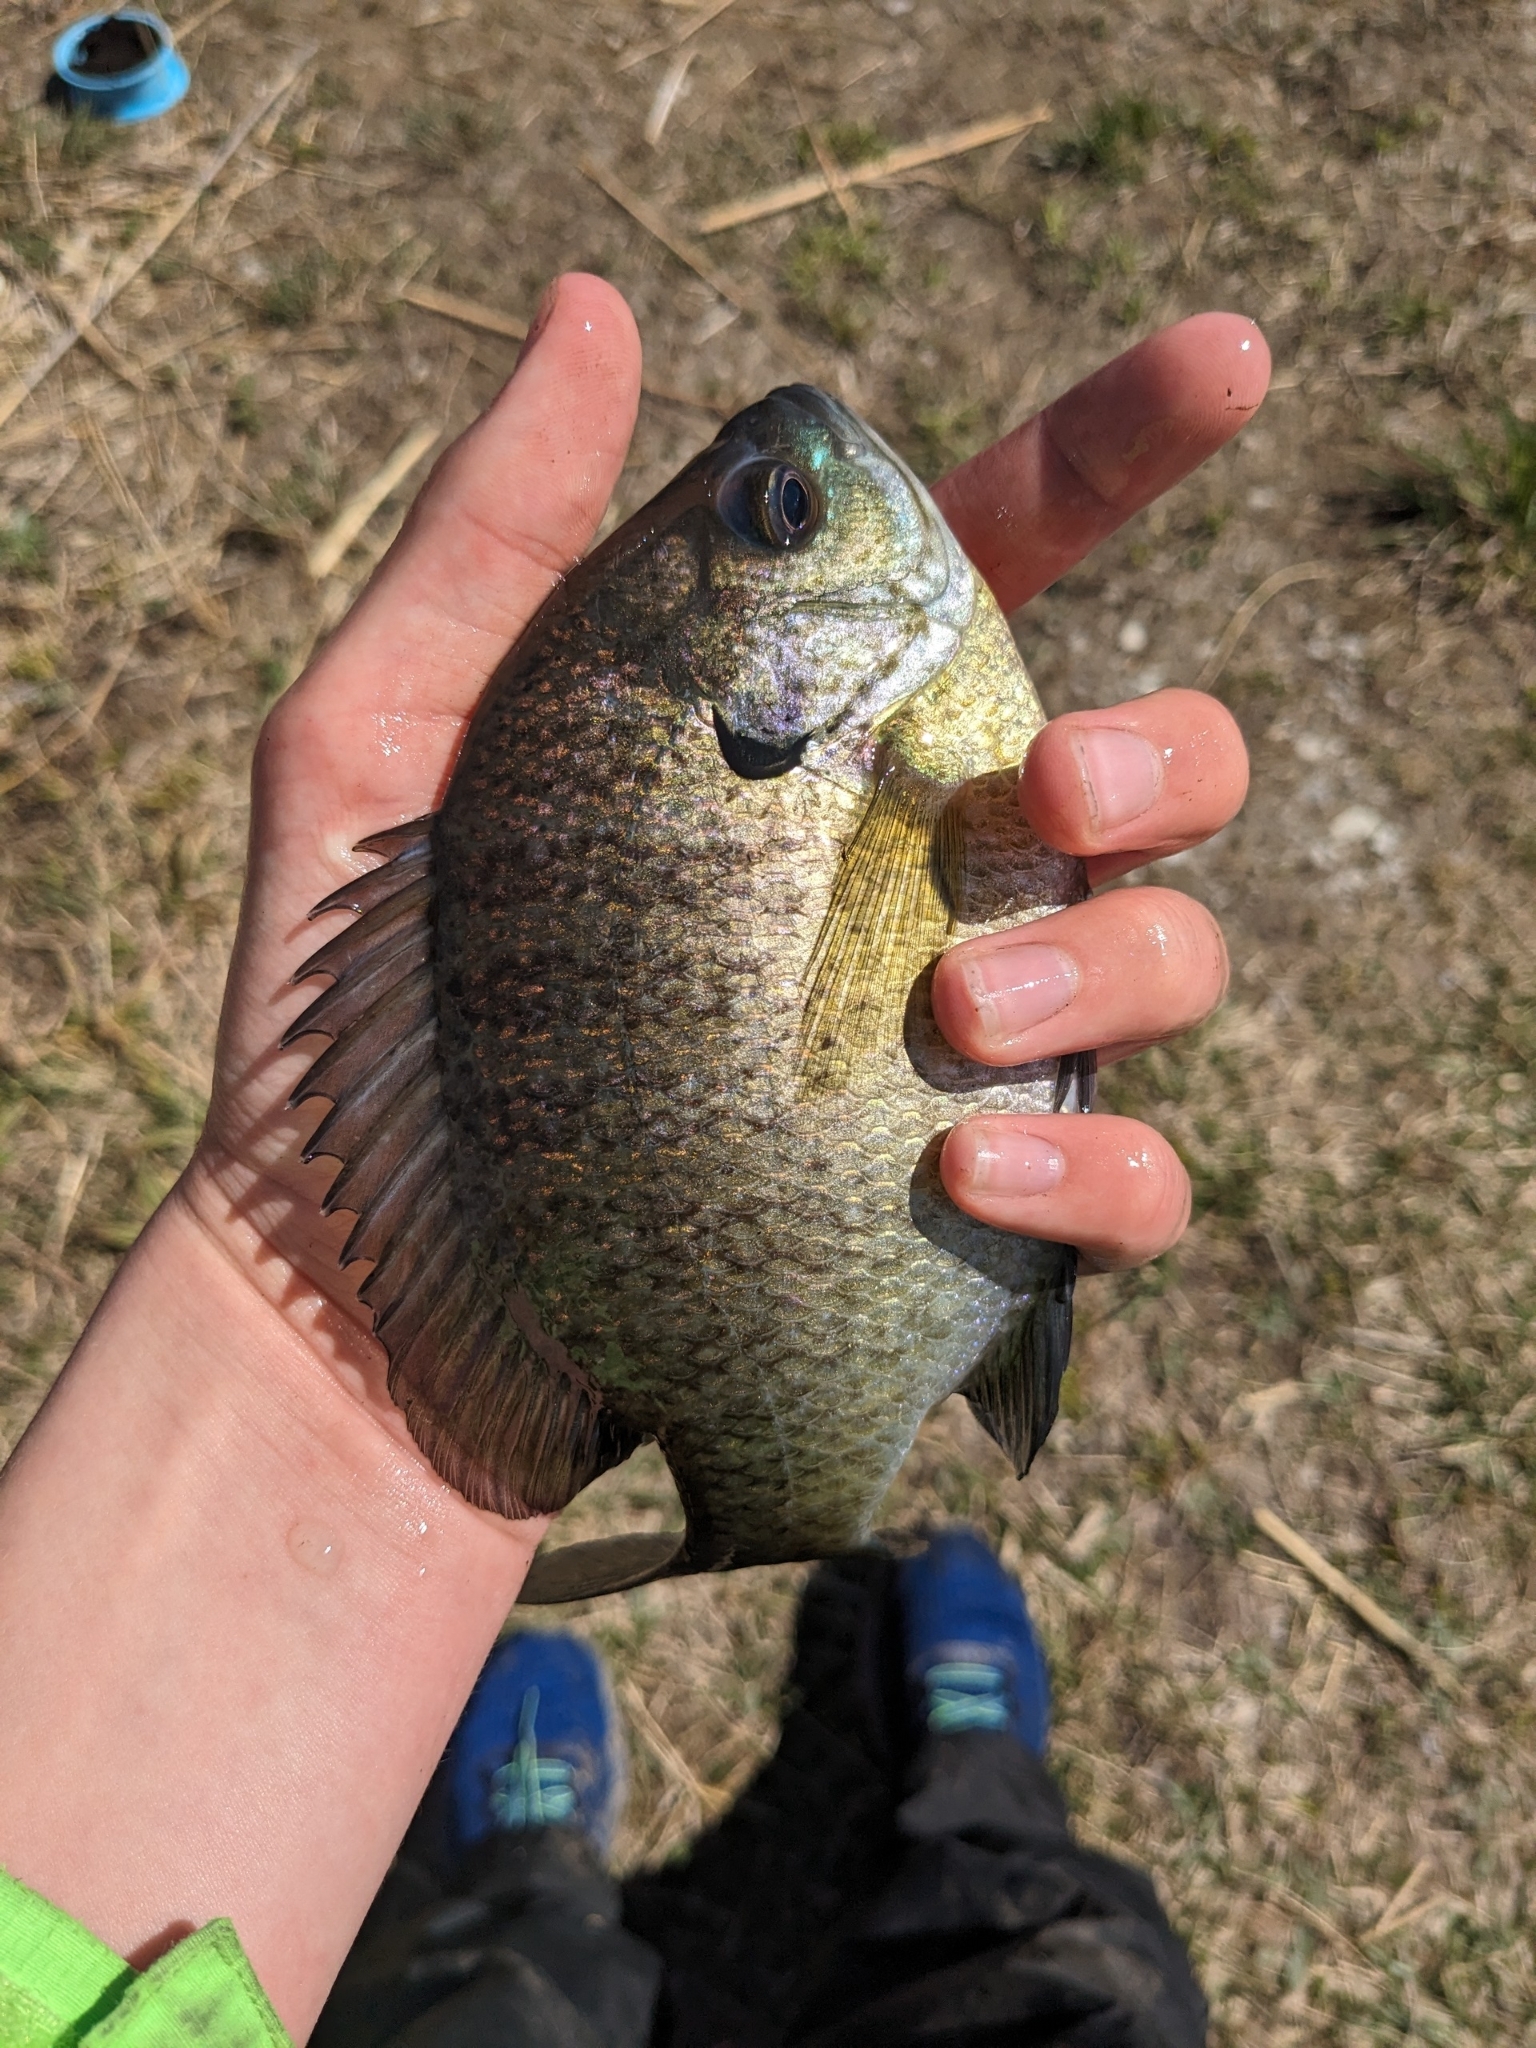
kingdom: Animalia
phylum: Chordata
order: Perciformes
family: Centrarchidae
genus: Lepomis
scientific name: Lepomis macrochirus
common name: Bluegill
